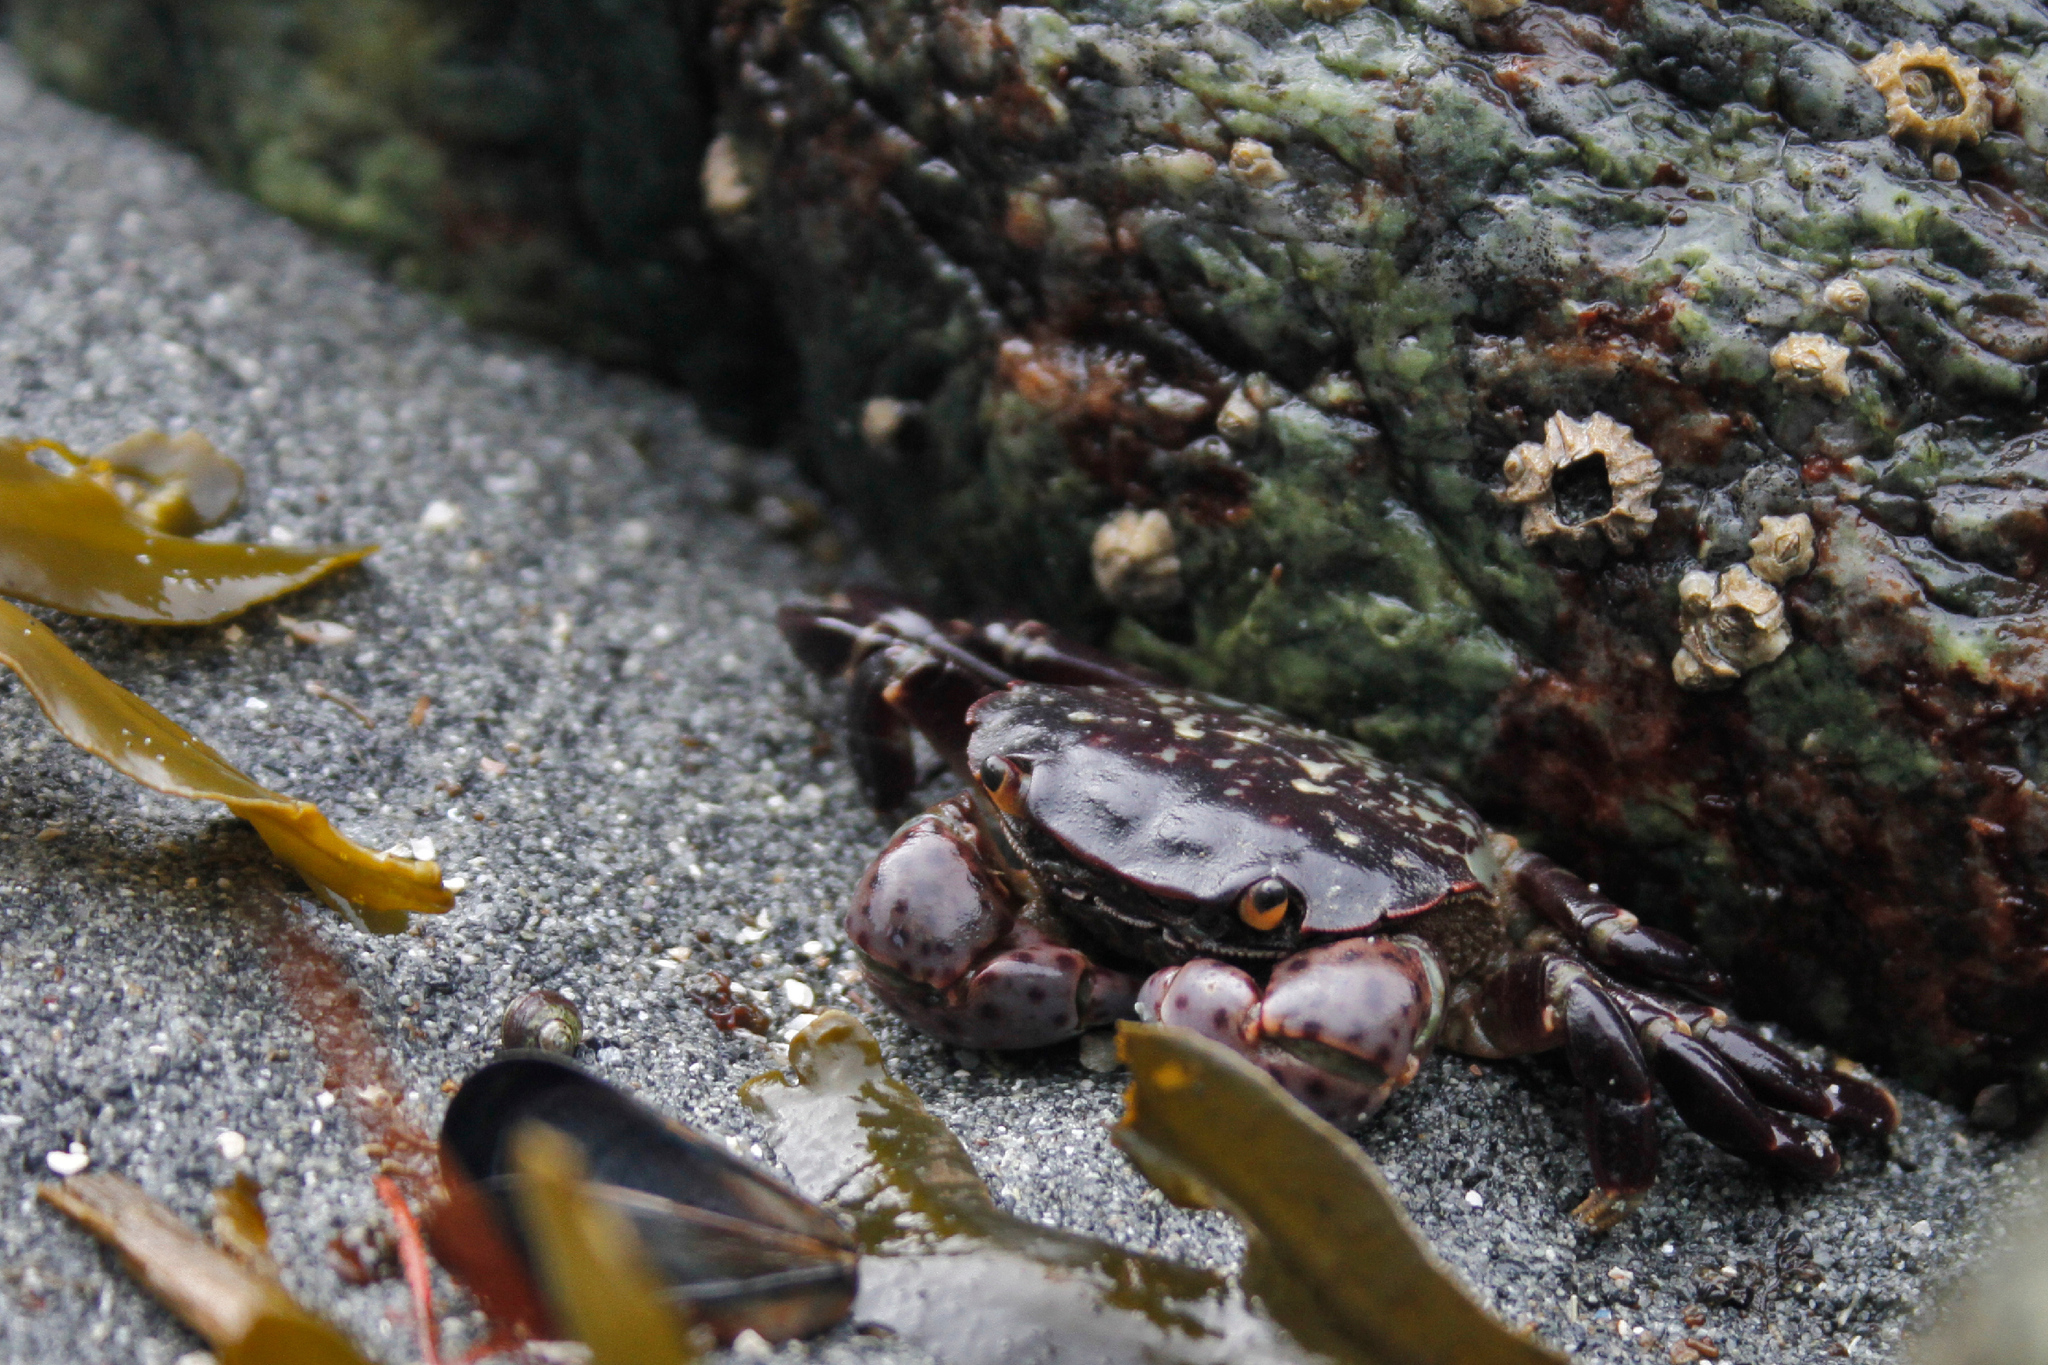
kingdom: Animalia
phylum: Arthropoda
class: Malacostraca
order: Decapoda
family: Varunidae
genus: Hemigrapsus
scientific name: Hemigrapsus nudus
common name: Purple shore crab
